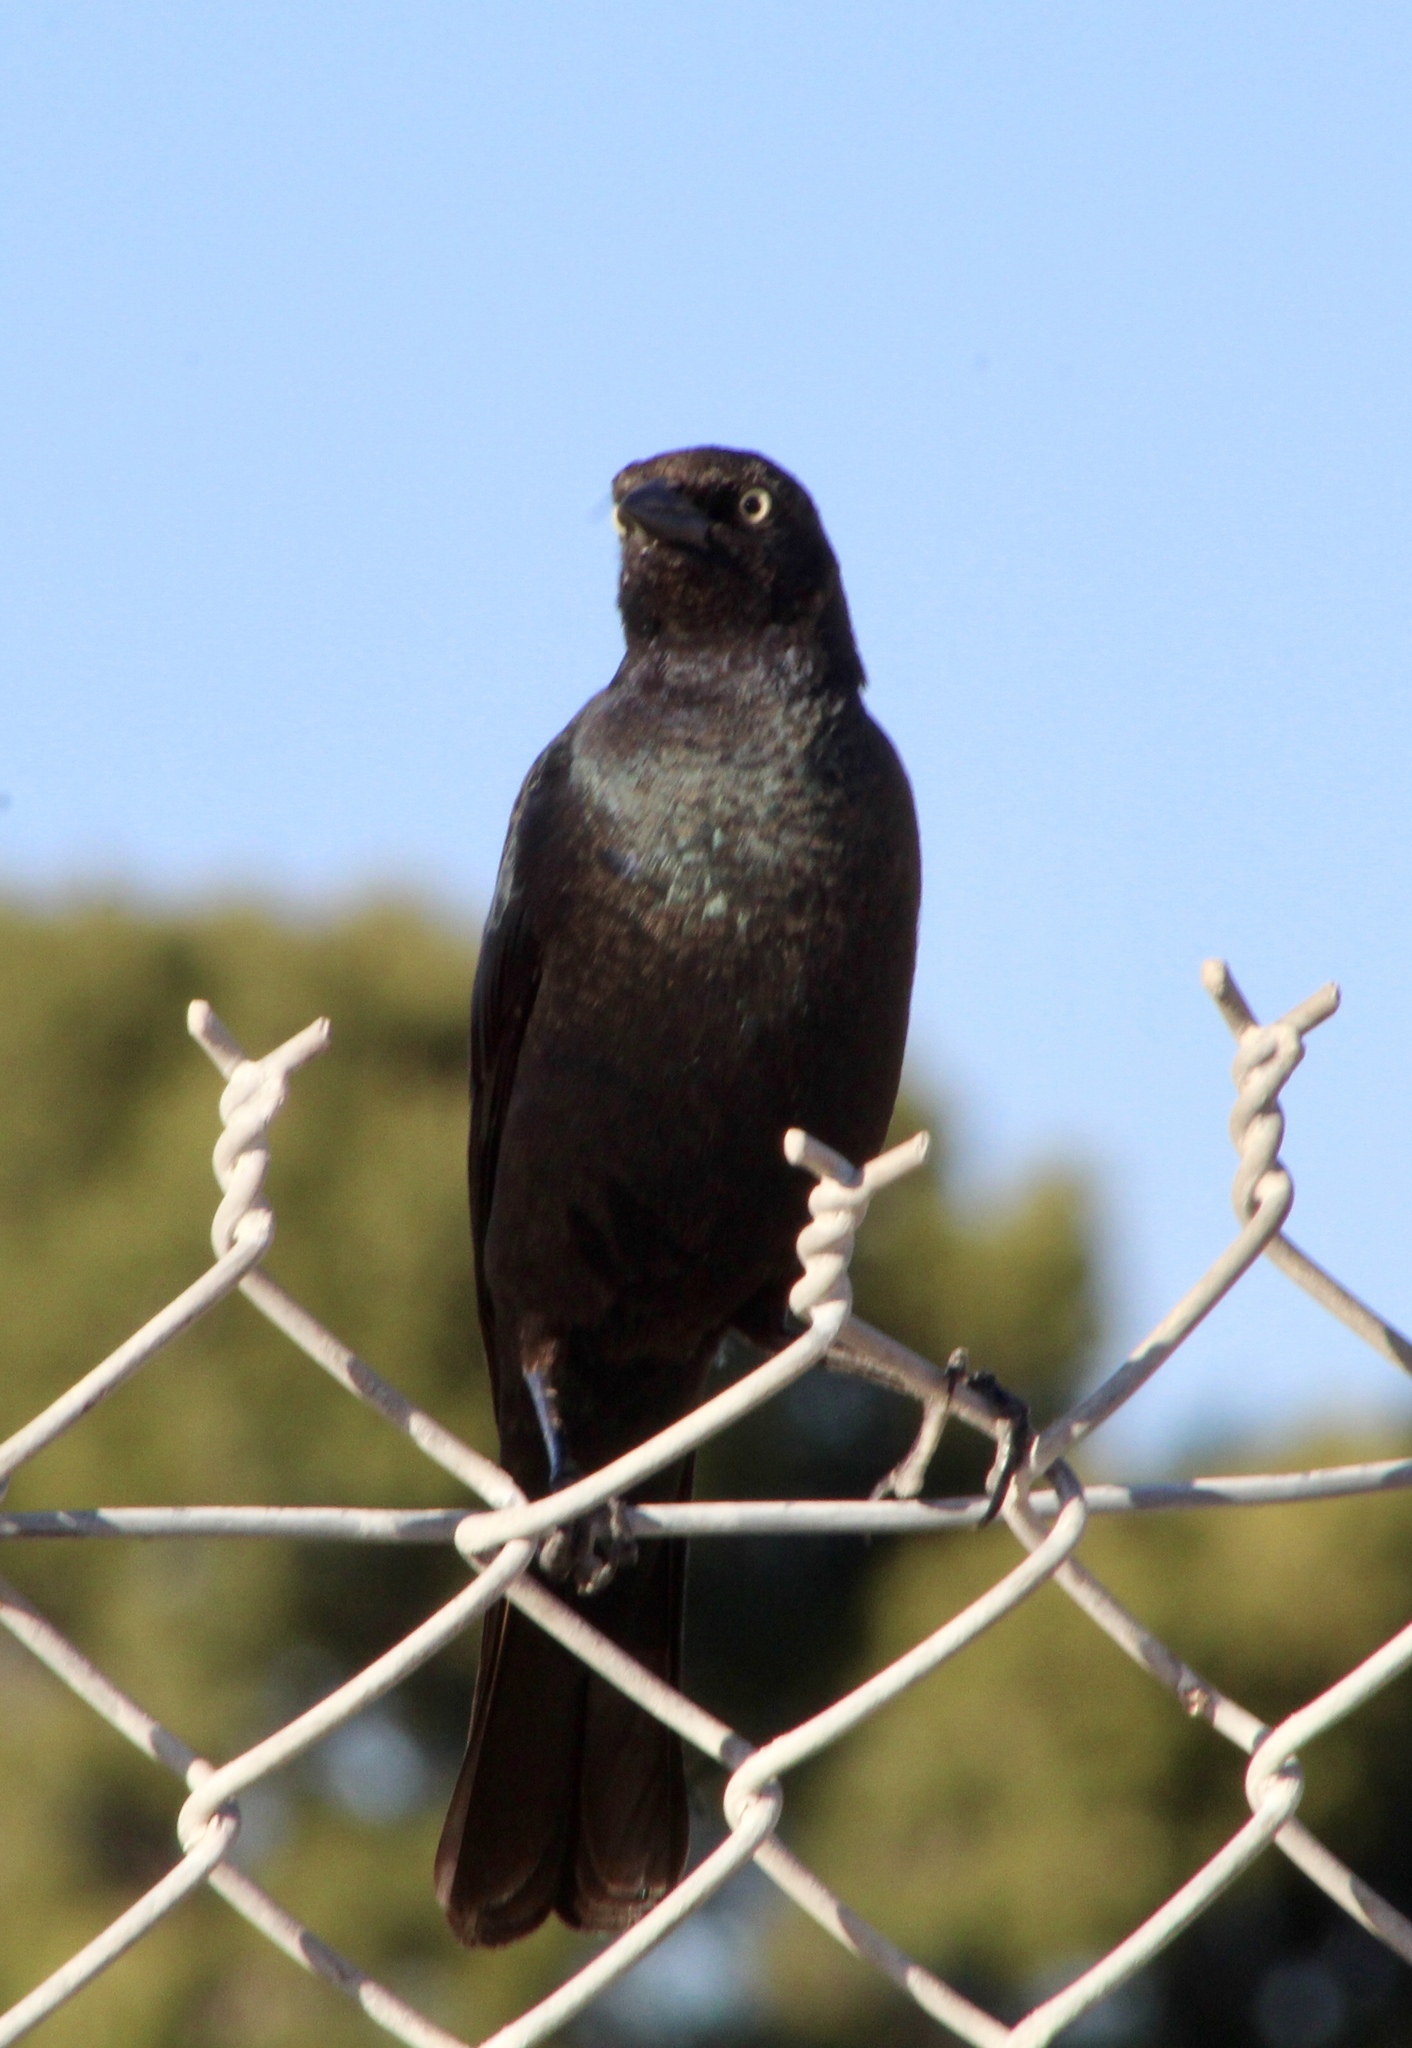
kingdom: Animalia
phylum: Chordata
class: Aves
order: Passeriformes
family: Icteridae
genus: Euphagus
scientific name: Euphagus cyanocephalus
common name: Brewer's blackbird
